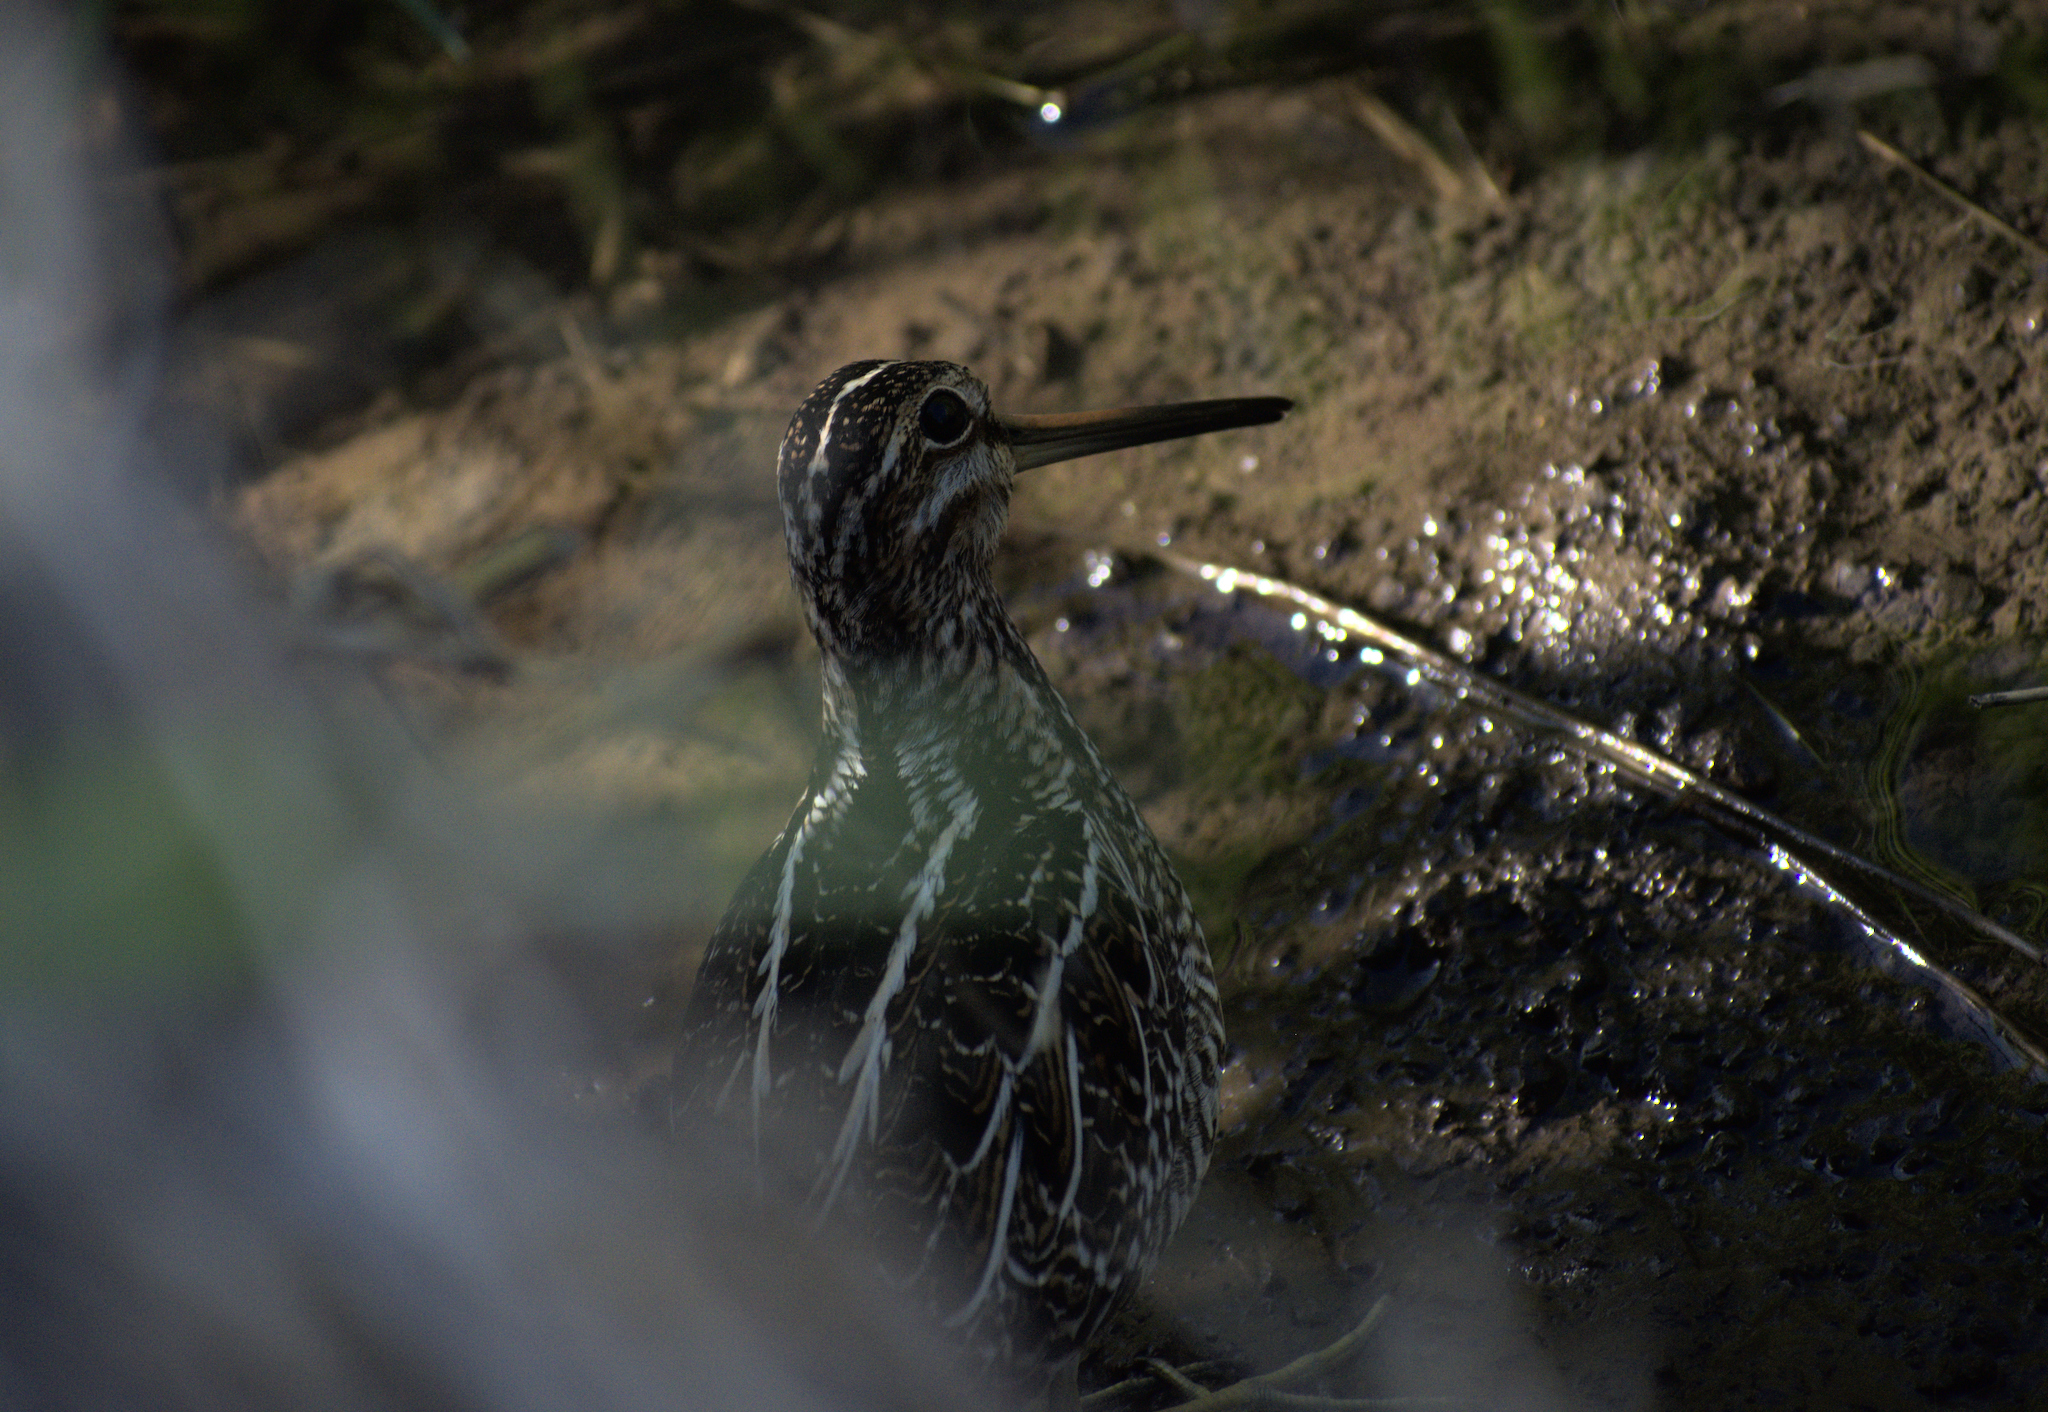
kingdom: Animalia
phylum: Chordata
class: Aves
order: Charadriiformes
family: Scolopacidae
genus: Gallinago
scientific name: Gallinago delicata
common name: Wilson's snipe
